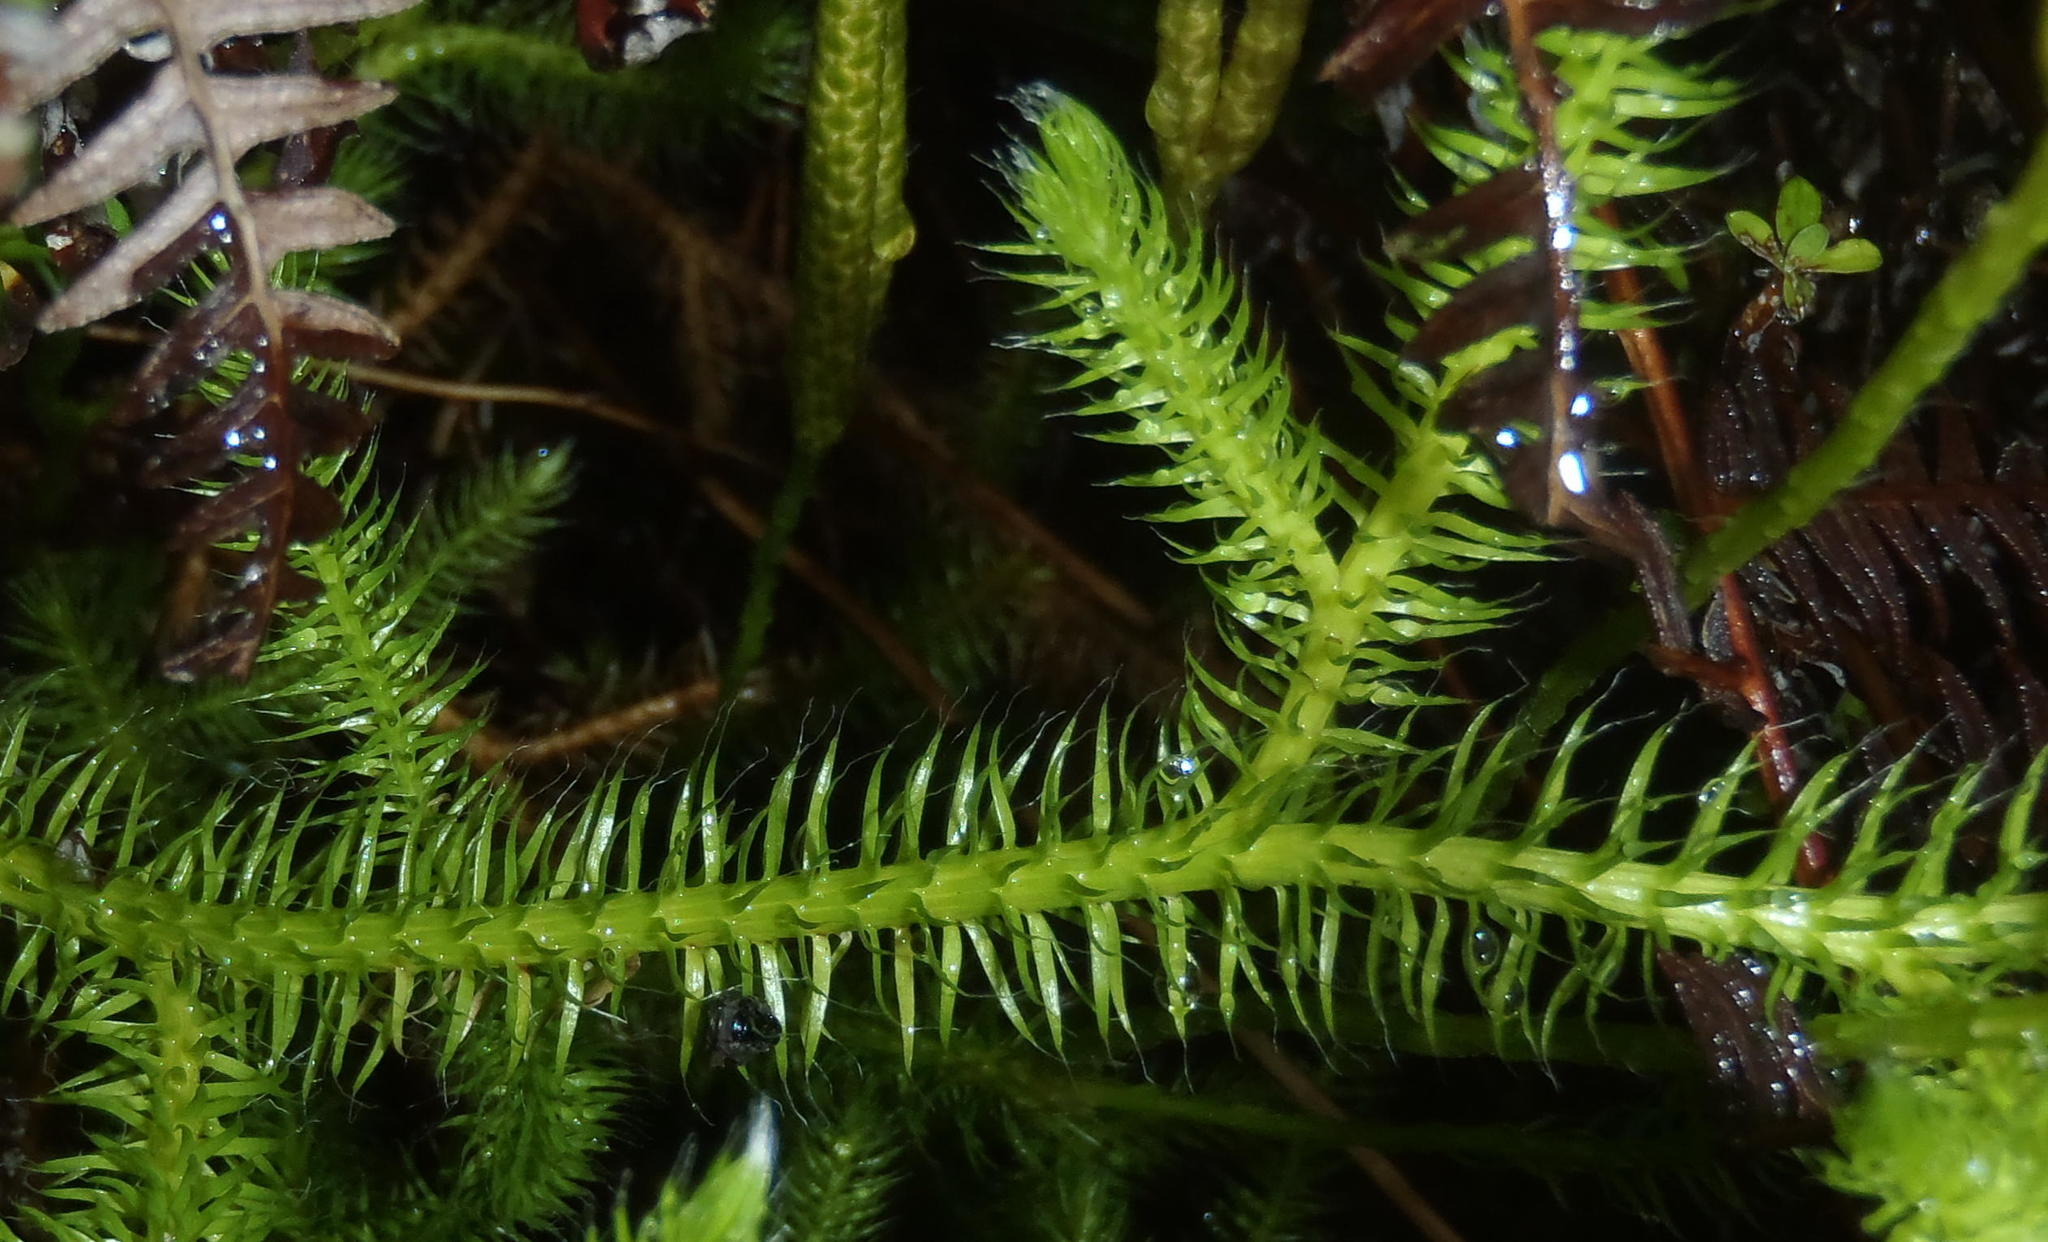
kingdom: Plantae
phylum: Tracheophyta
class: Lycopodiopsida
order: Lycopodiales
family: Lycopodiaceae
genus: Lycopodium
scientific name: Lycopodium clavatum
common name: Stag's-horn clubmoss
